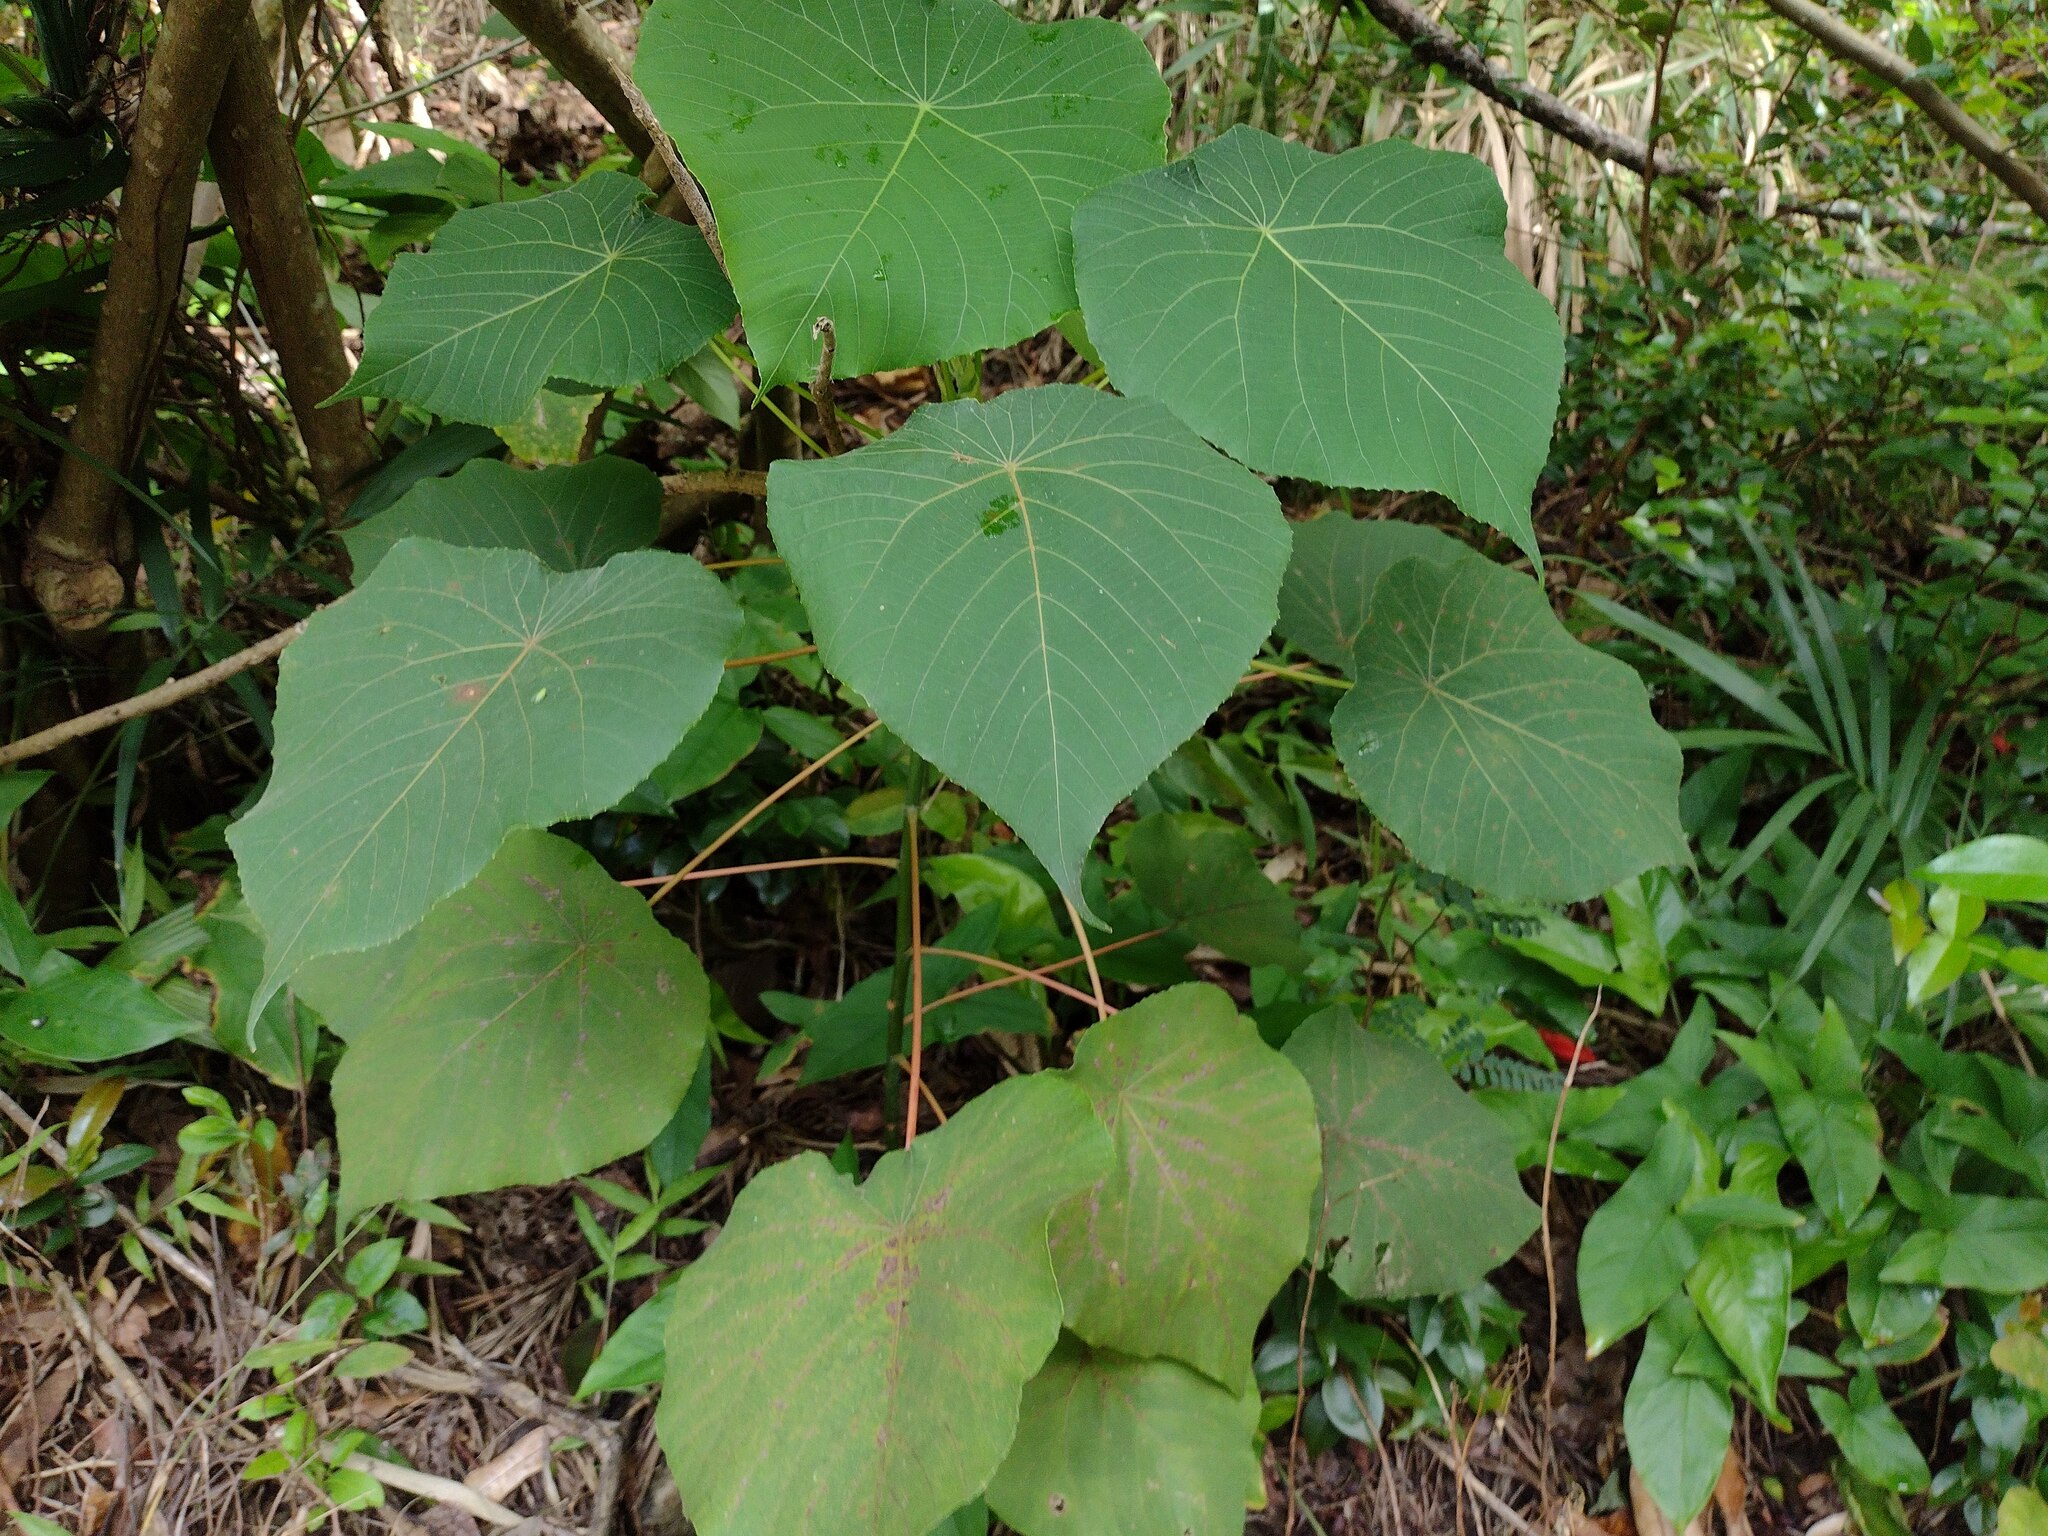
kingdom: Plantae
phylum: Tracheophyta
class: Magnoliopsida
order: Malpighiales
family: Euphorbiaceae
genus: Macaranga
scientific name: Macaranga tanarius
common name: Parasol leaf tree
